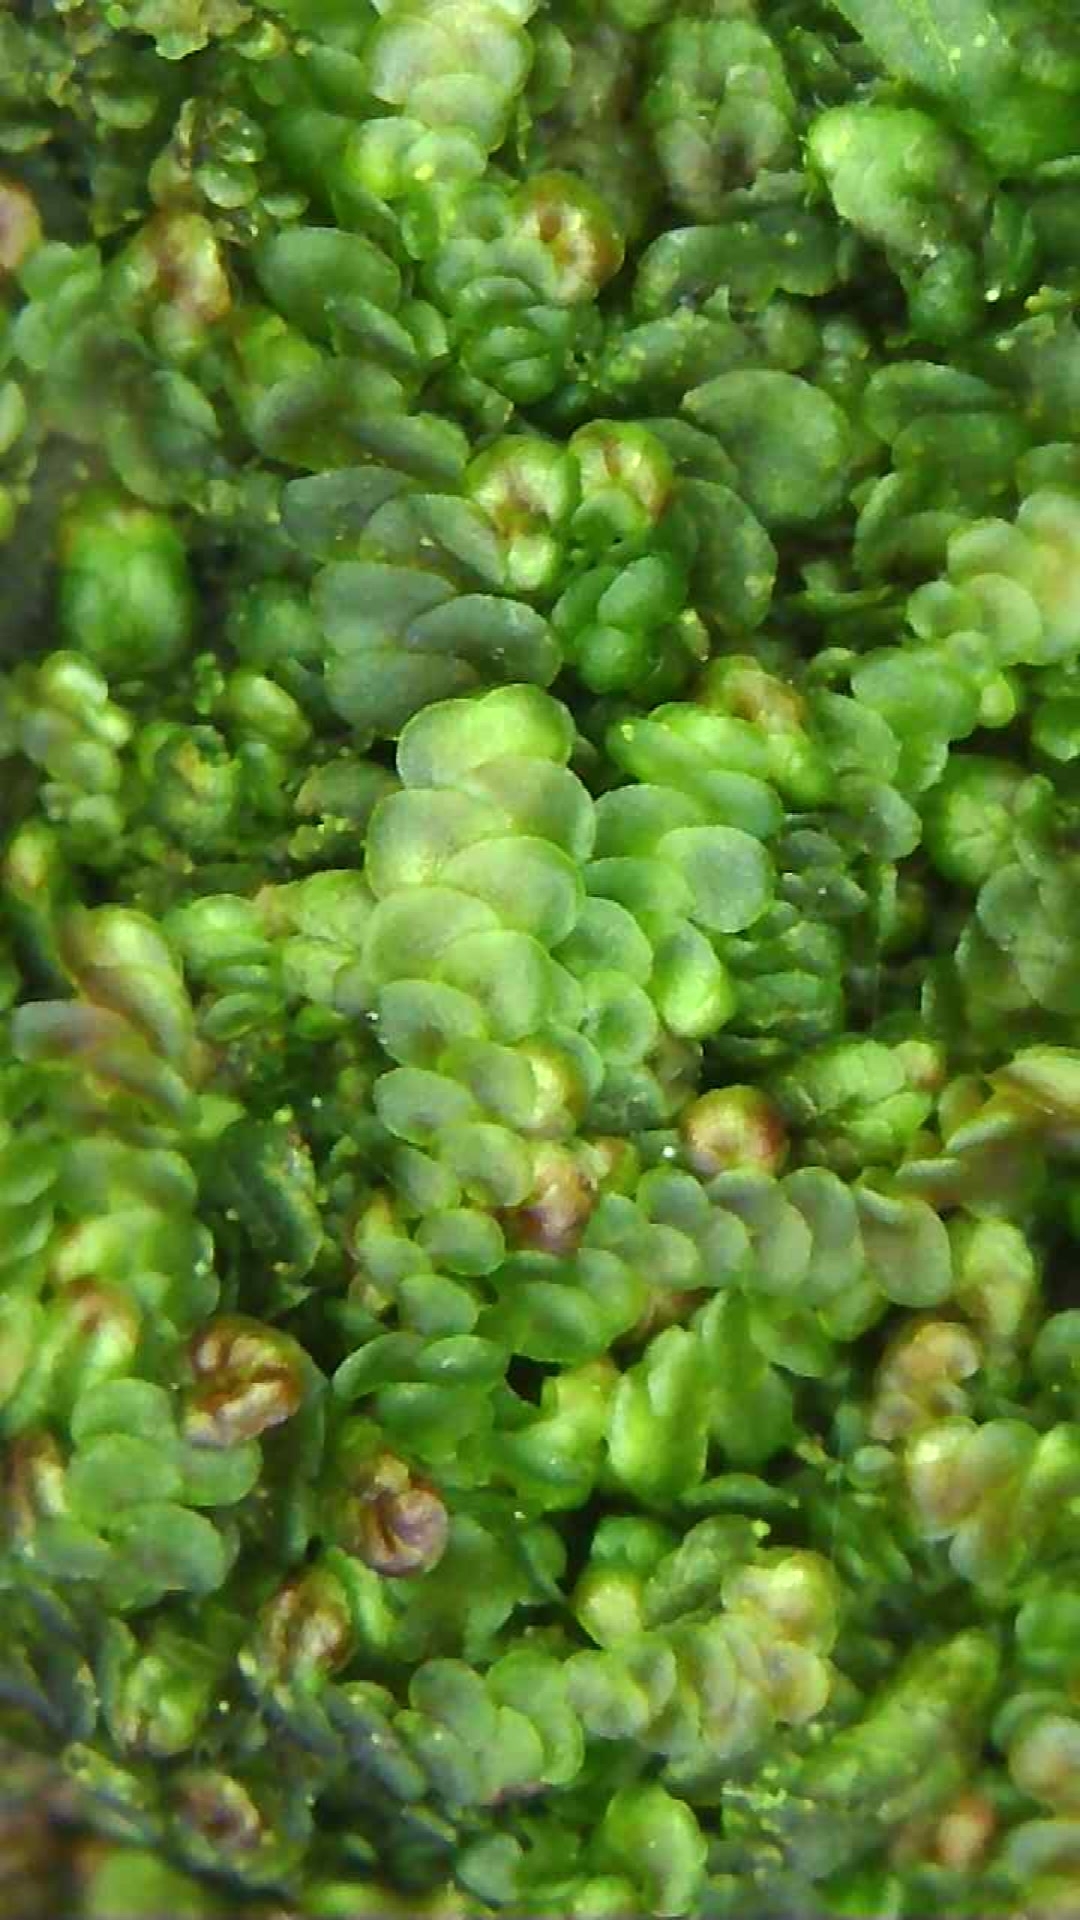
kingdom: Plantae
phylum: Marchantiophyta
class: Jungermanniopsida
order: Porellales
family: Frullaniaceae
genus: Frullania
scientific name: Frullania dilatata
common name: Dilated scalewort
